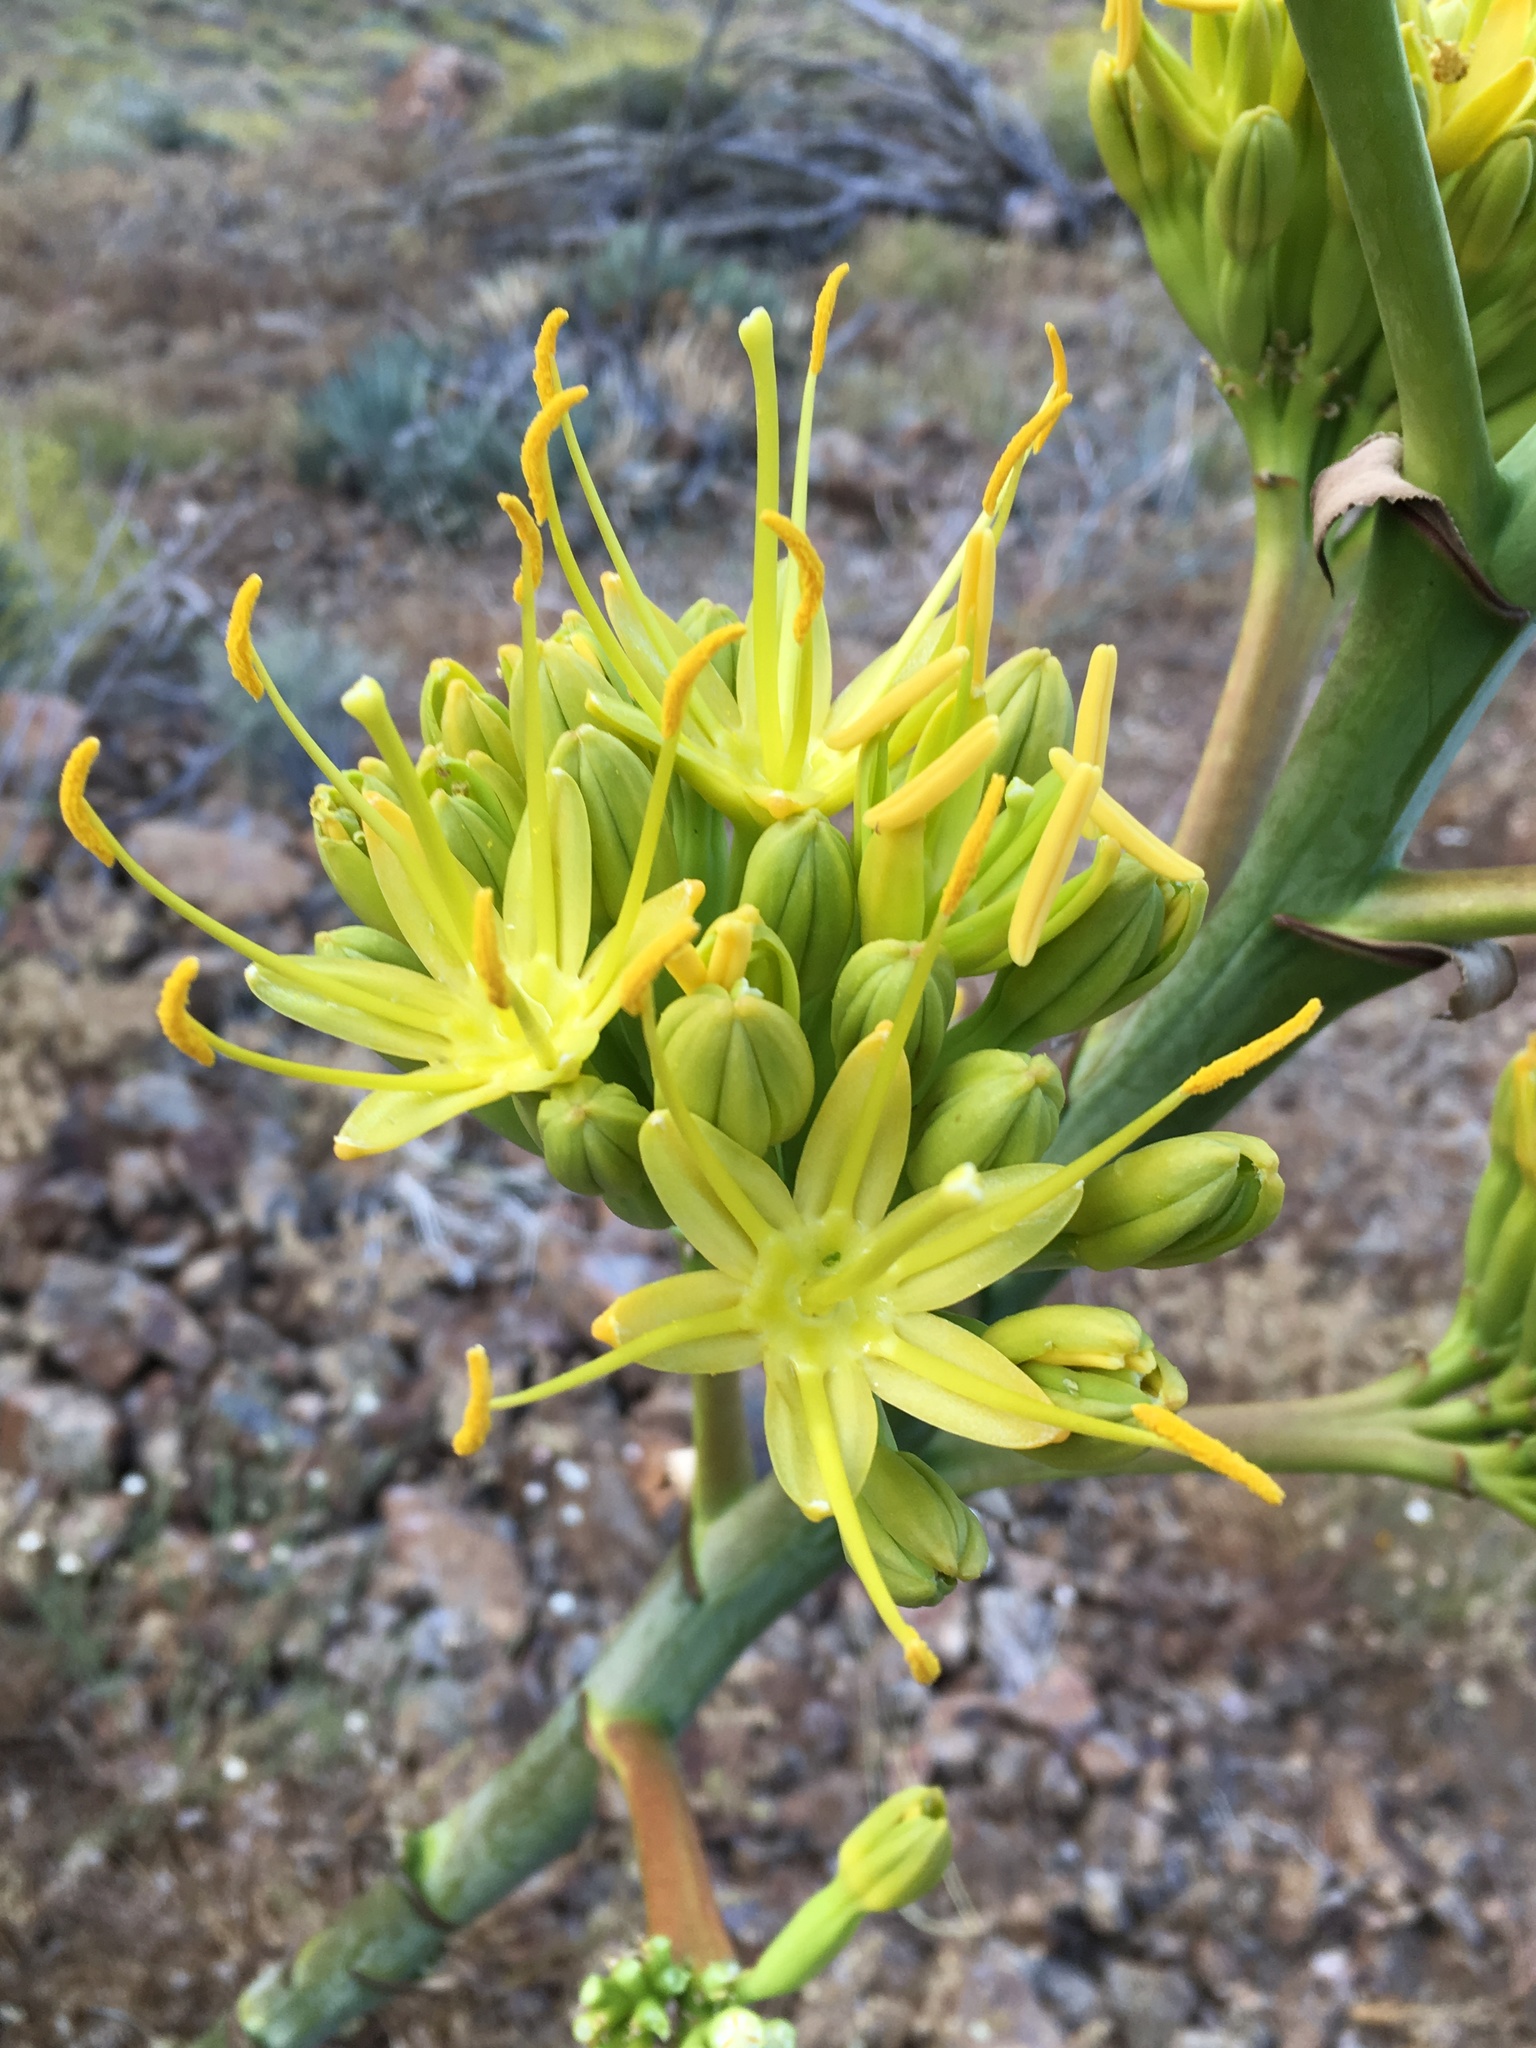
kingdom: Plantae
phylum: Tracheophyta
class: Liliopsida
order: Asparagales
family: Asparagaceae
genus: Agave
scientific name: Agave deserti
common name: Desert agave
